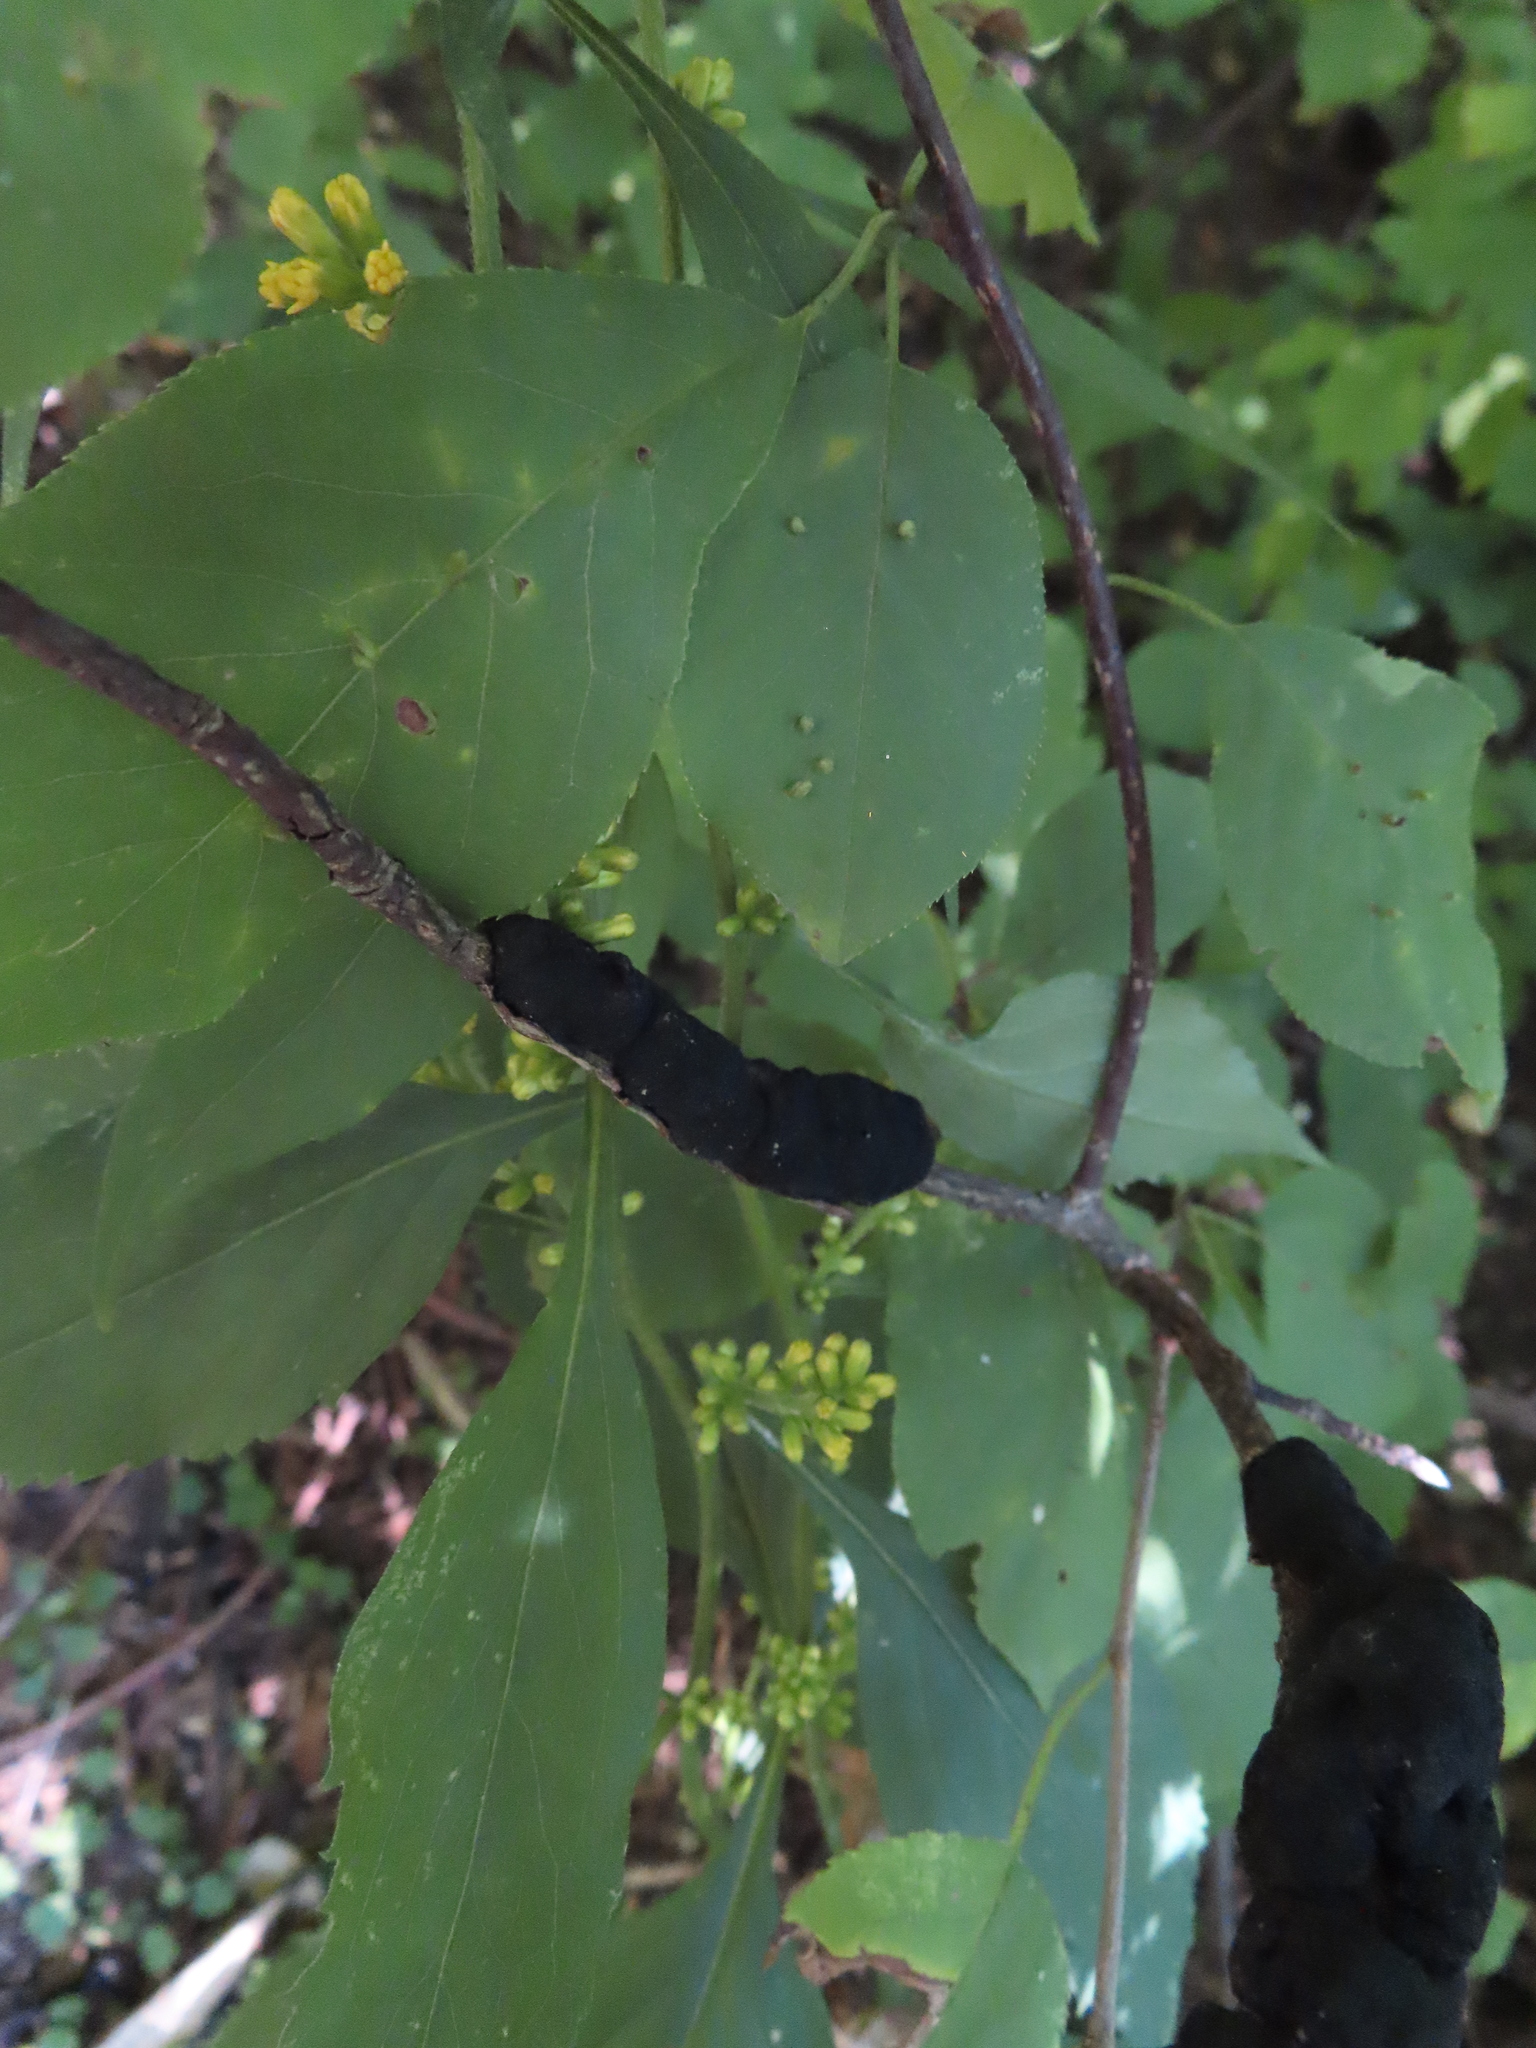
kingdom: Fungi
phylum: Ascomycota
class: Dothideomycetes
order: Venturiales
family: Venturiaceae
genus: Apiosporina
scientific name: Apiosporina morbosa
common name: Black knot
